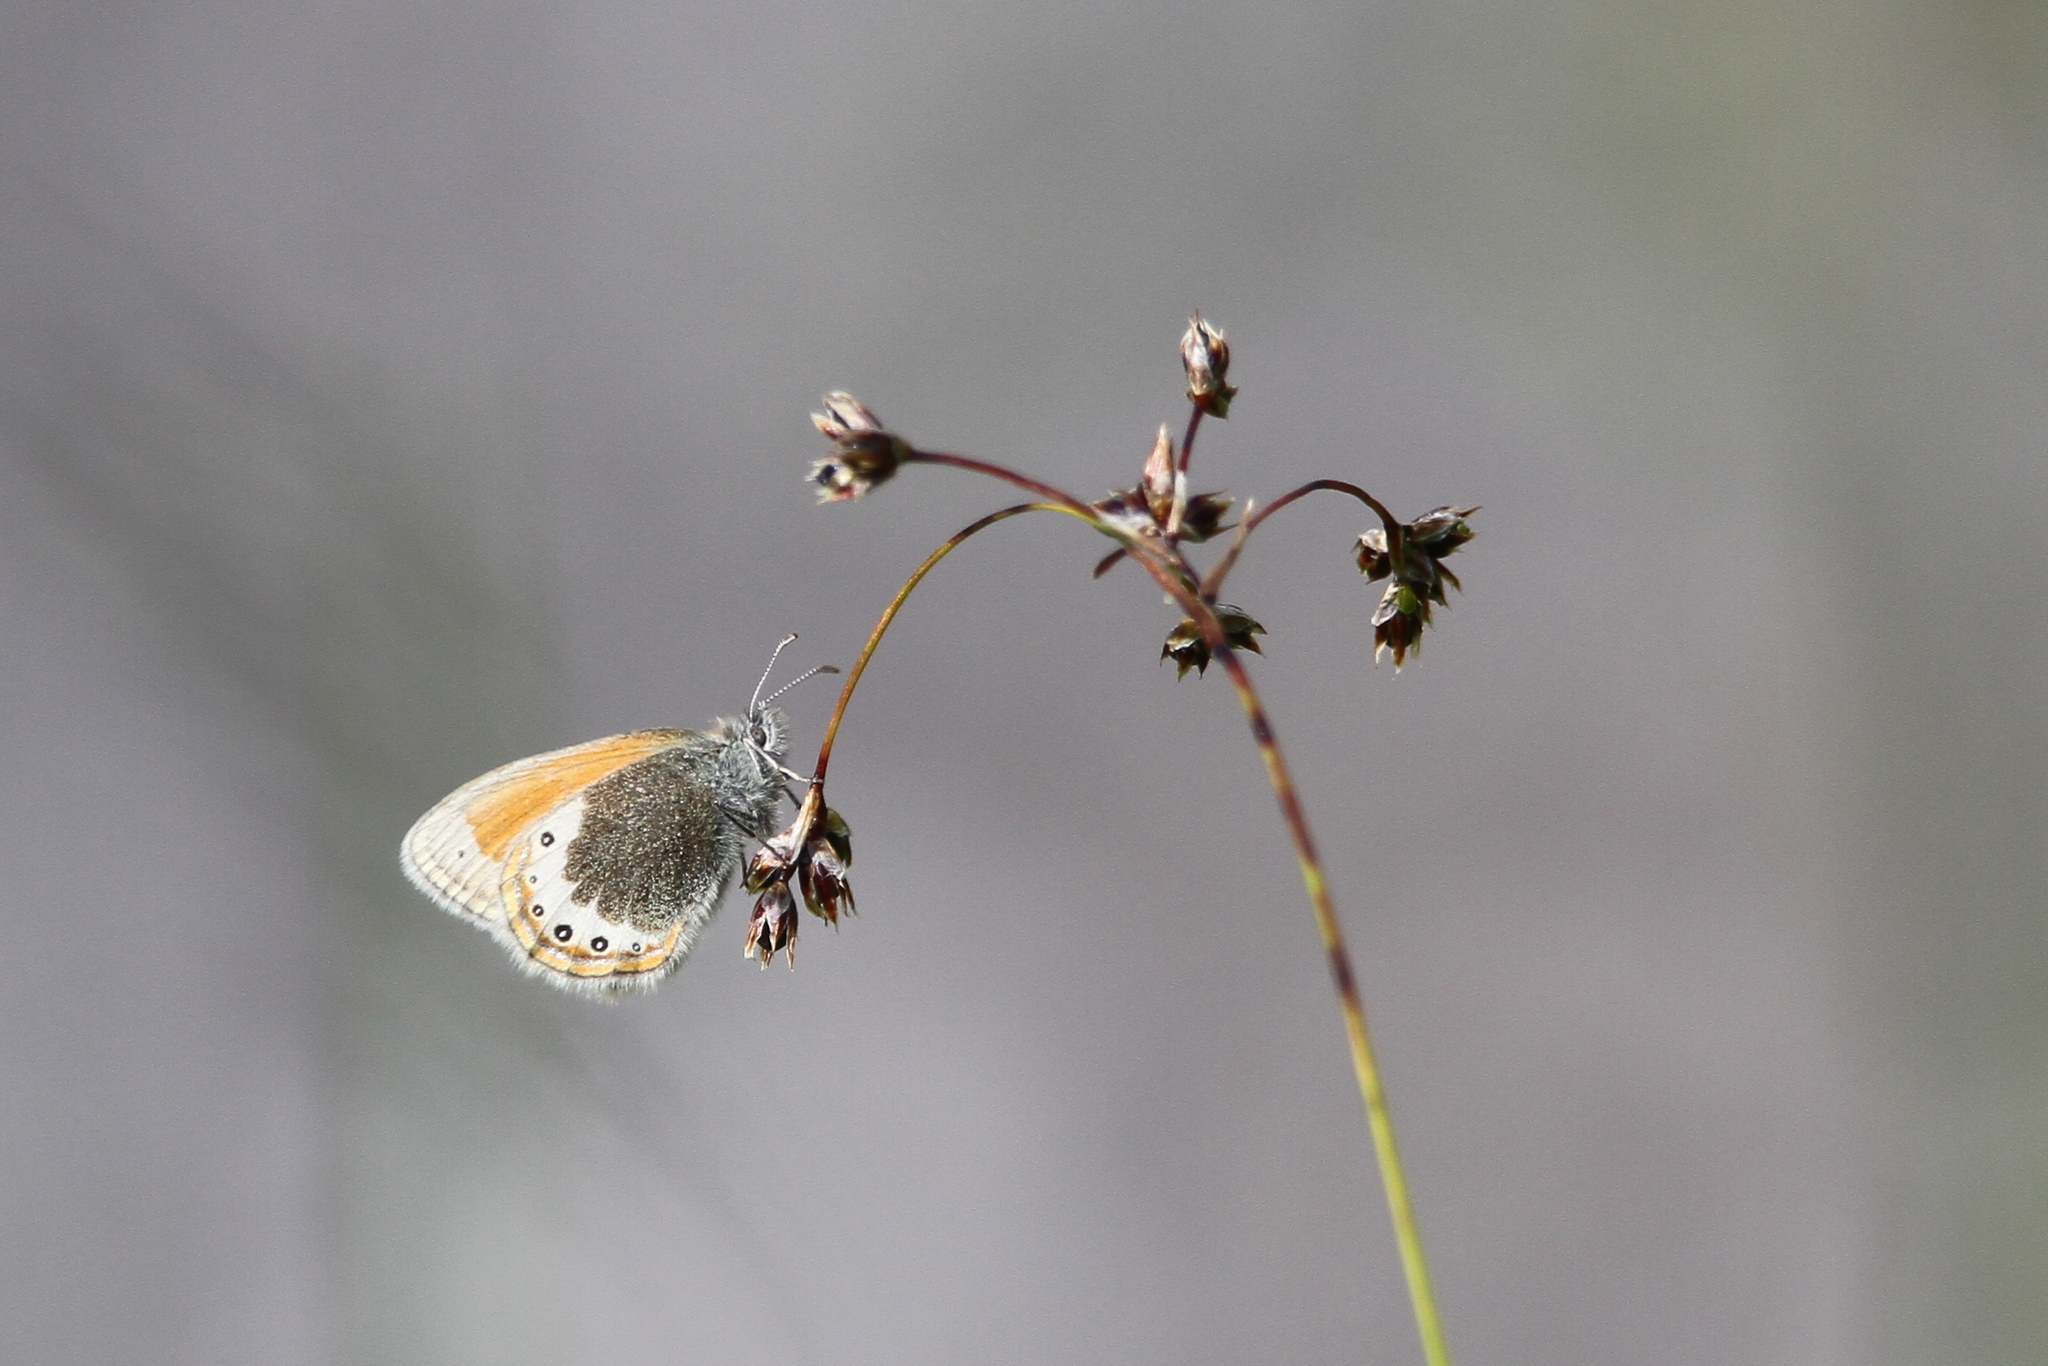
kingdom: Animalia
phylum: Arthropoda
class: Insecta
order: Lepidoptera
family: Nymphalidae
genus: Coenonympha
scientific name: Coenonympha
